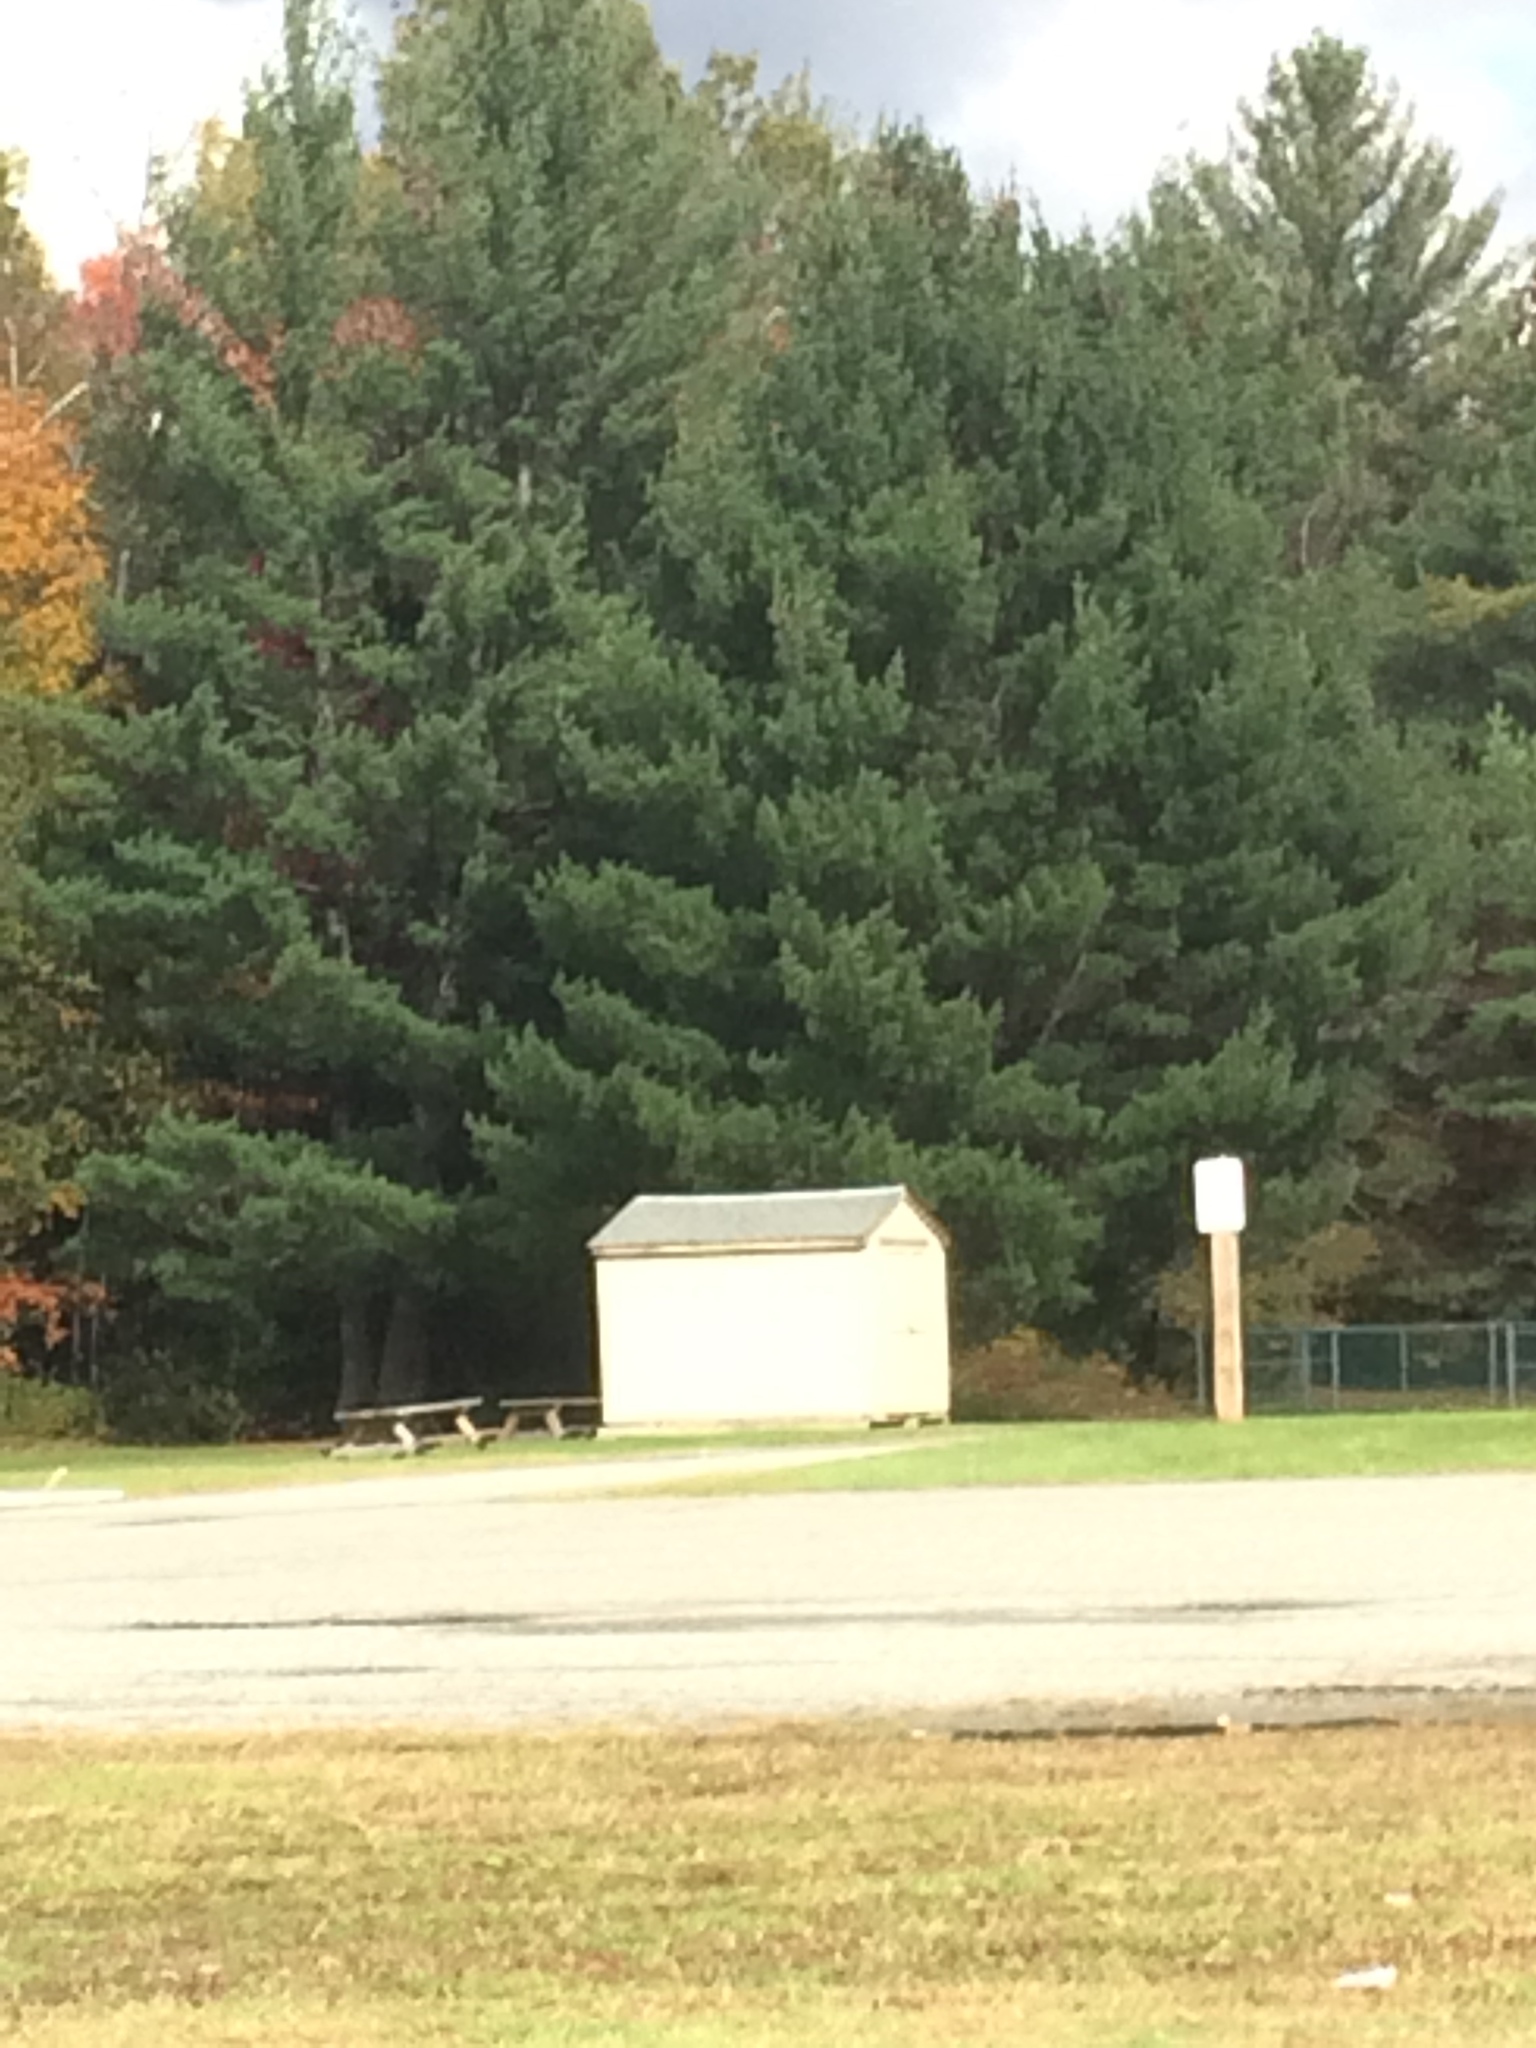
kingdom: Plantae
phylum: Tracheophyta
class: Pinopsida
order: Pinales
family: Pinaceae
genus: Pinus
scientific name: Pinus strobus
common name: Weymouth pine
